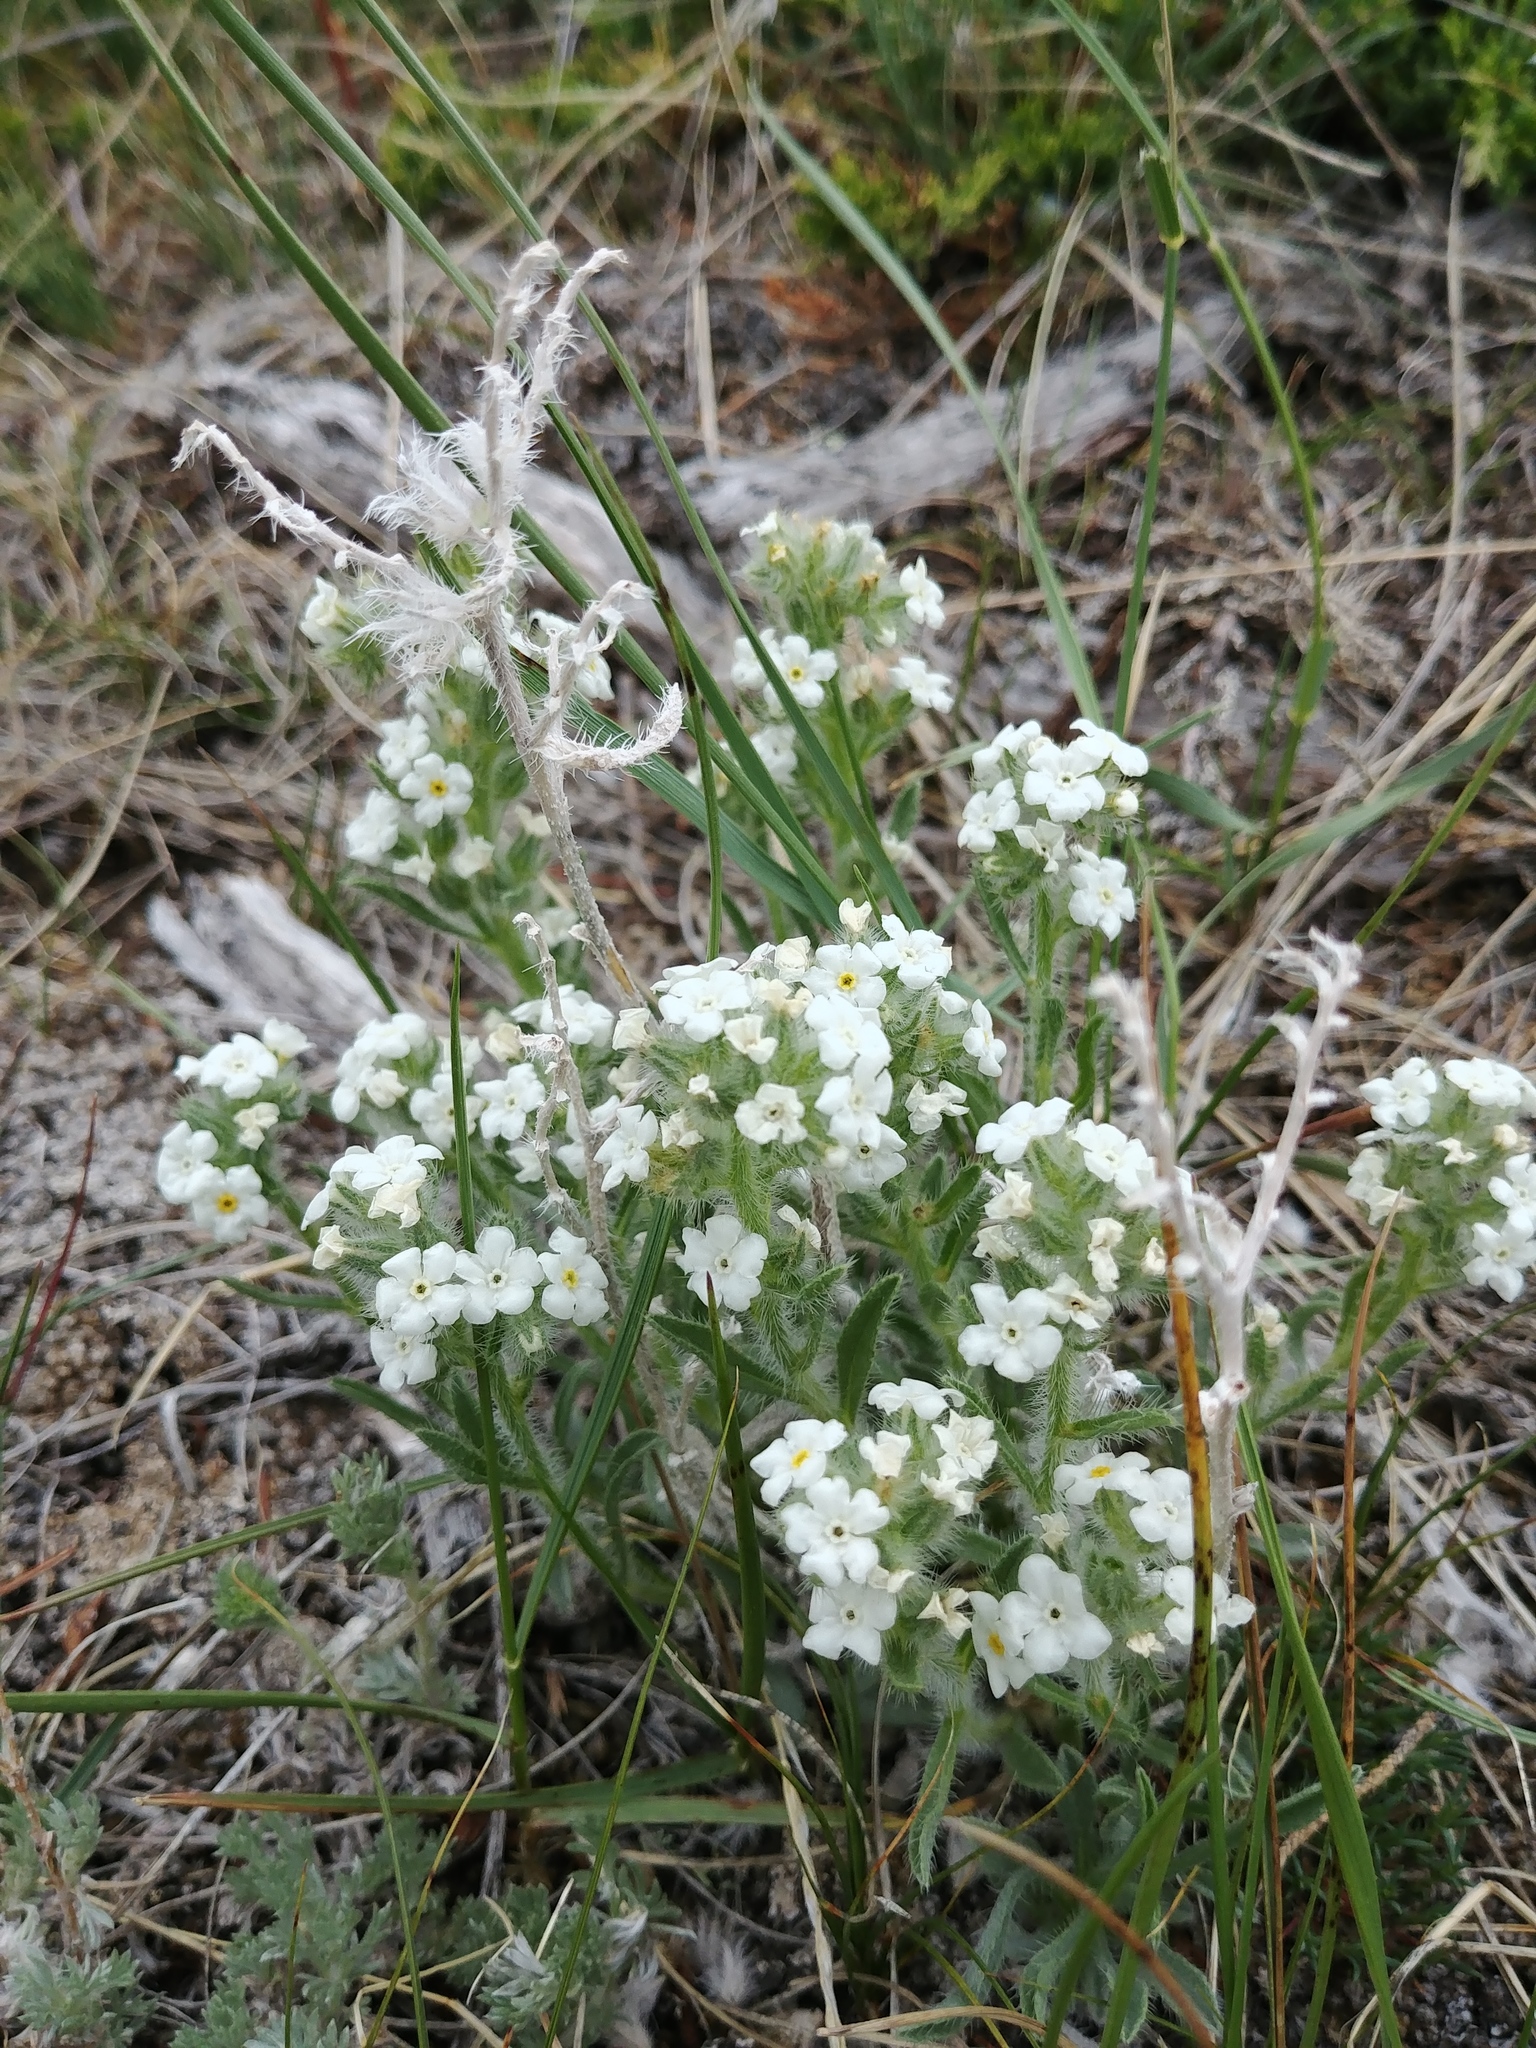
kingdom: Plantae
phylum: Tracheophyta
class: Magnoliopsida
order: Boraginales
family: Boraginaceae
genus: Oreocarya
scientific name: Oreocarya glomerata
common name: Macoun's cryptantha
